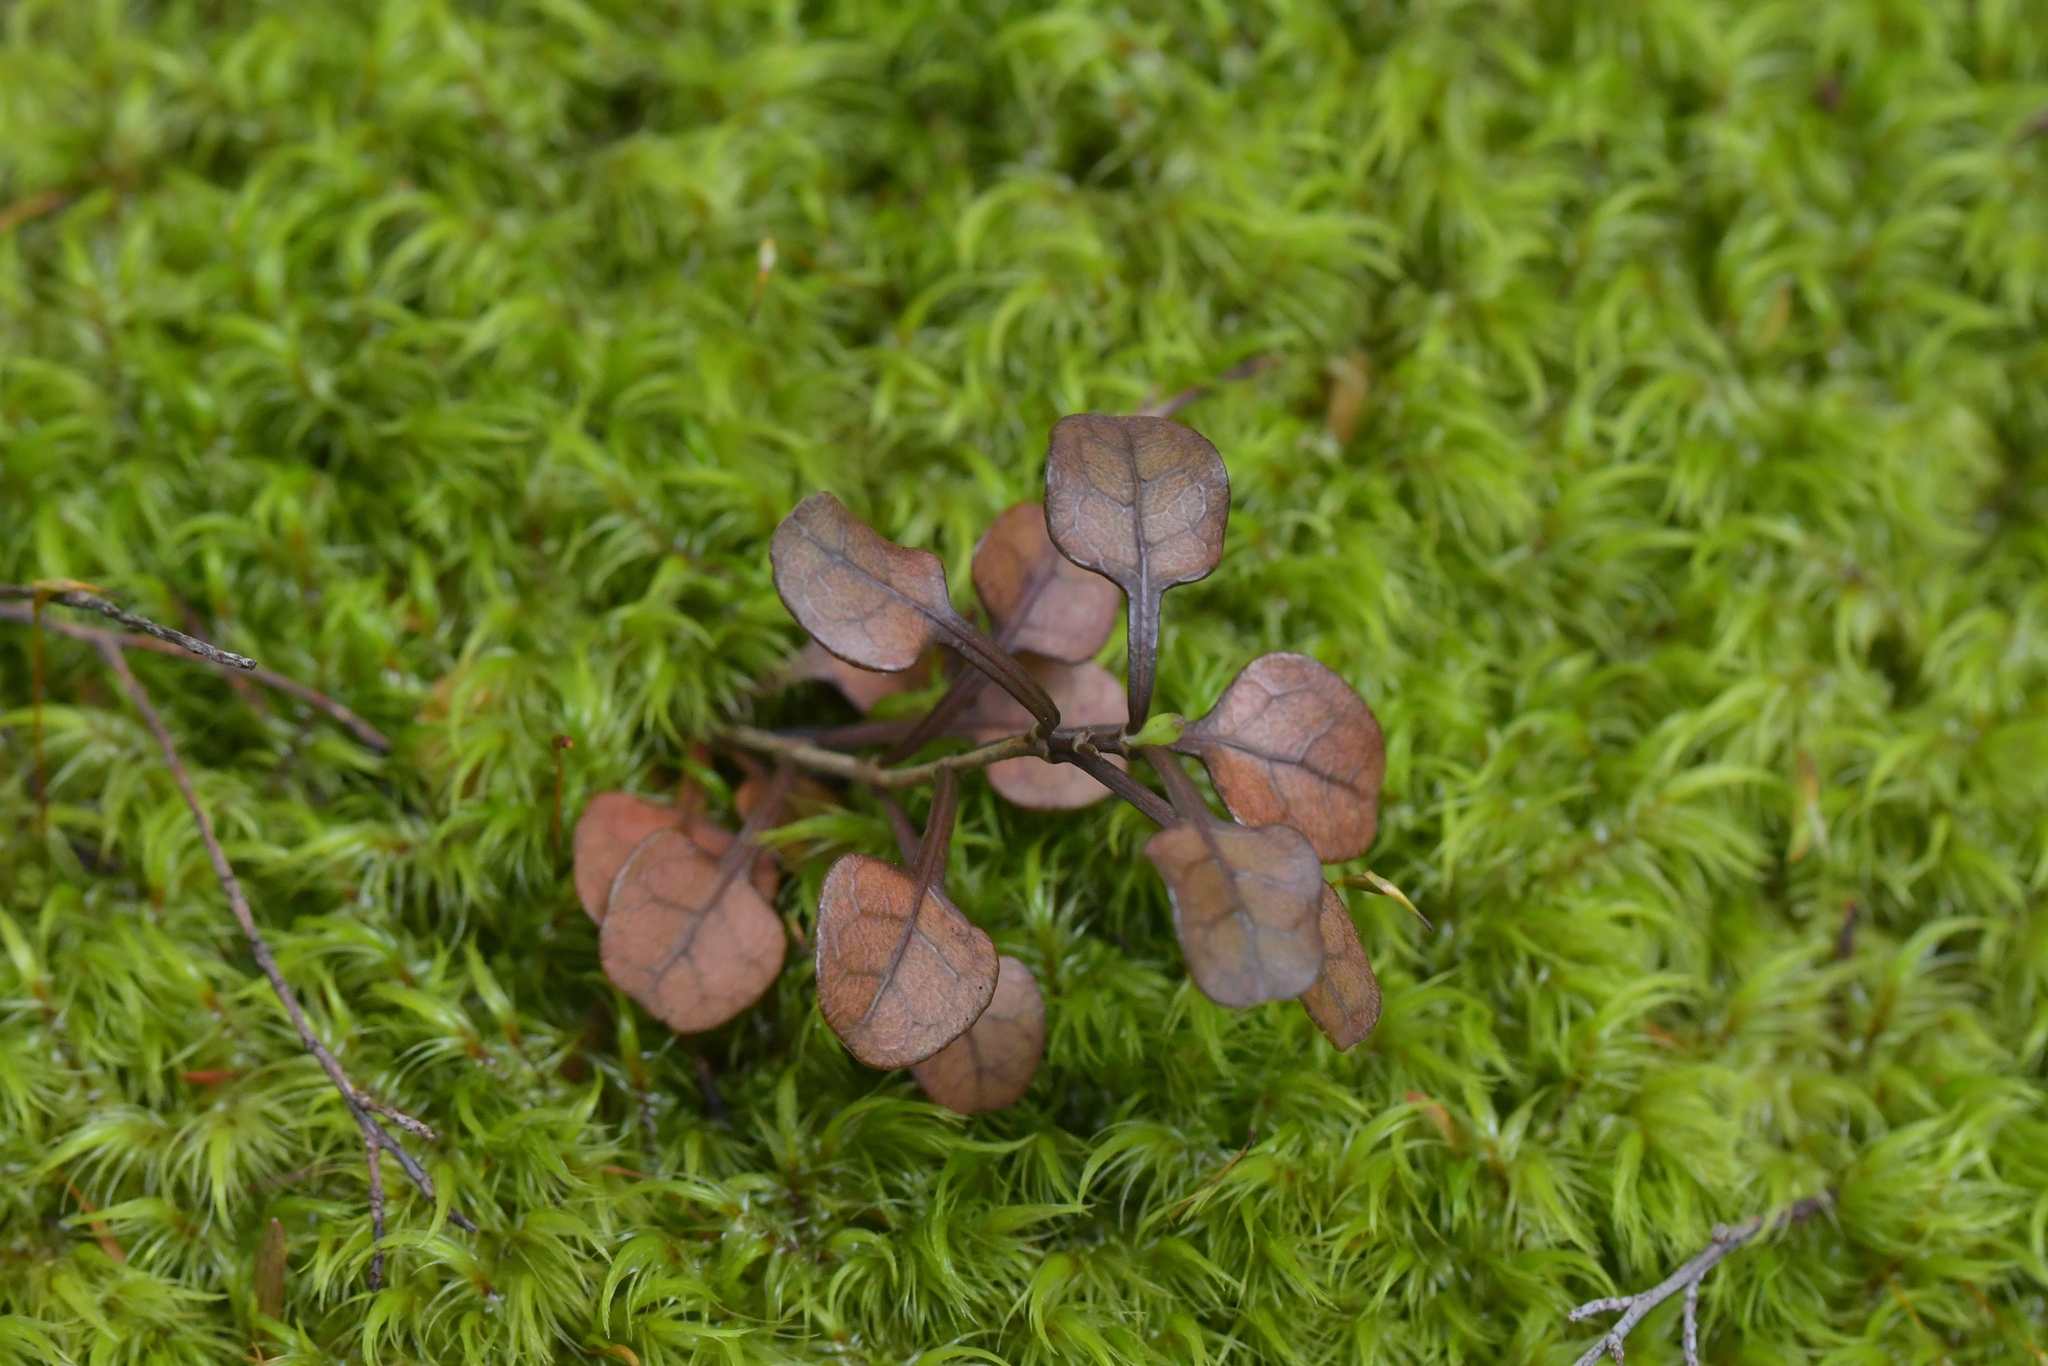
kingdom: Plantae
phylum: Tracheophyta
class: Magnoliopsida
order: Gentianales
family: Rubiaceae
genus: Coprosma
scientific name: Coprosma spathulata
